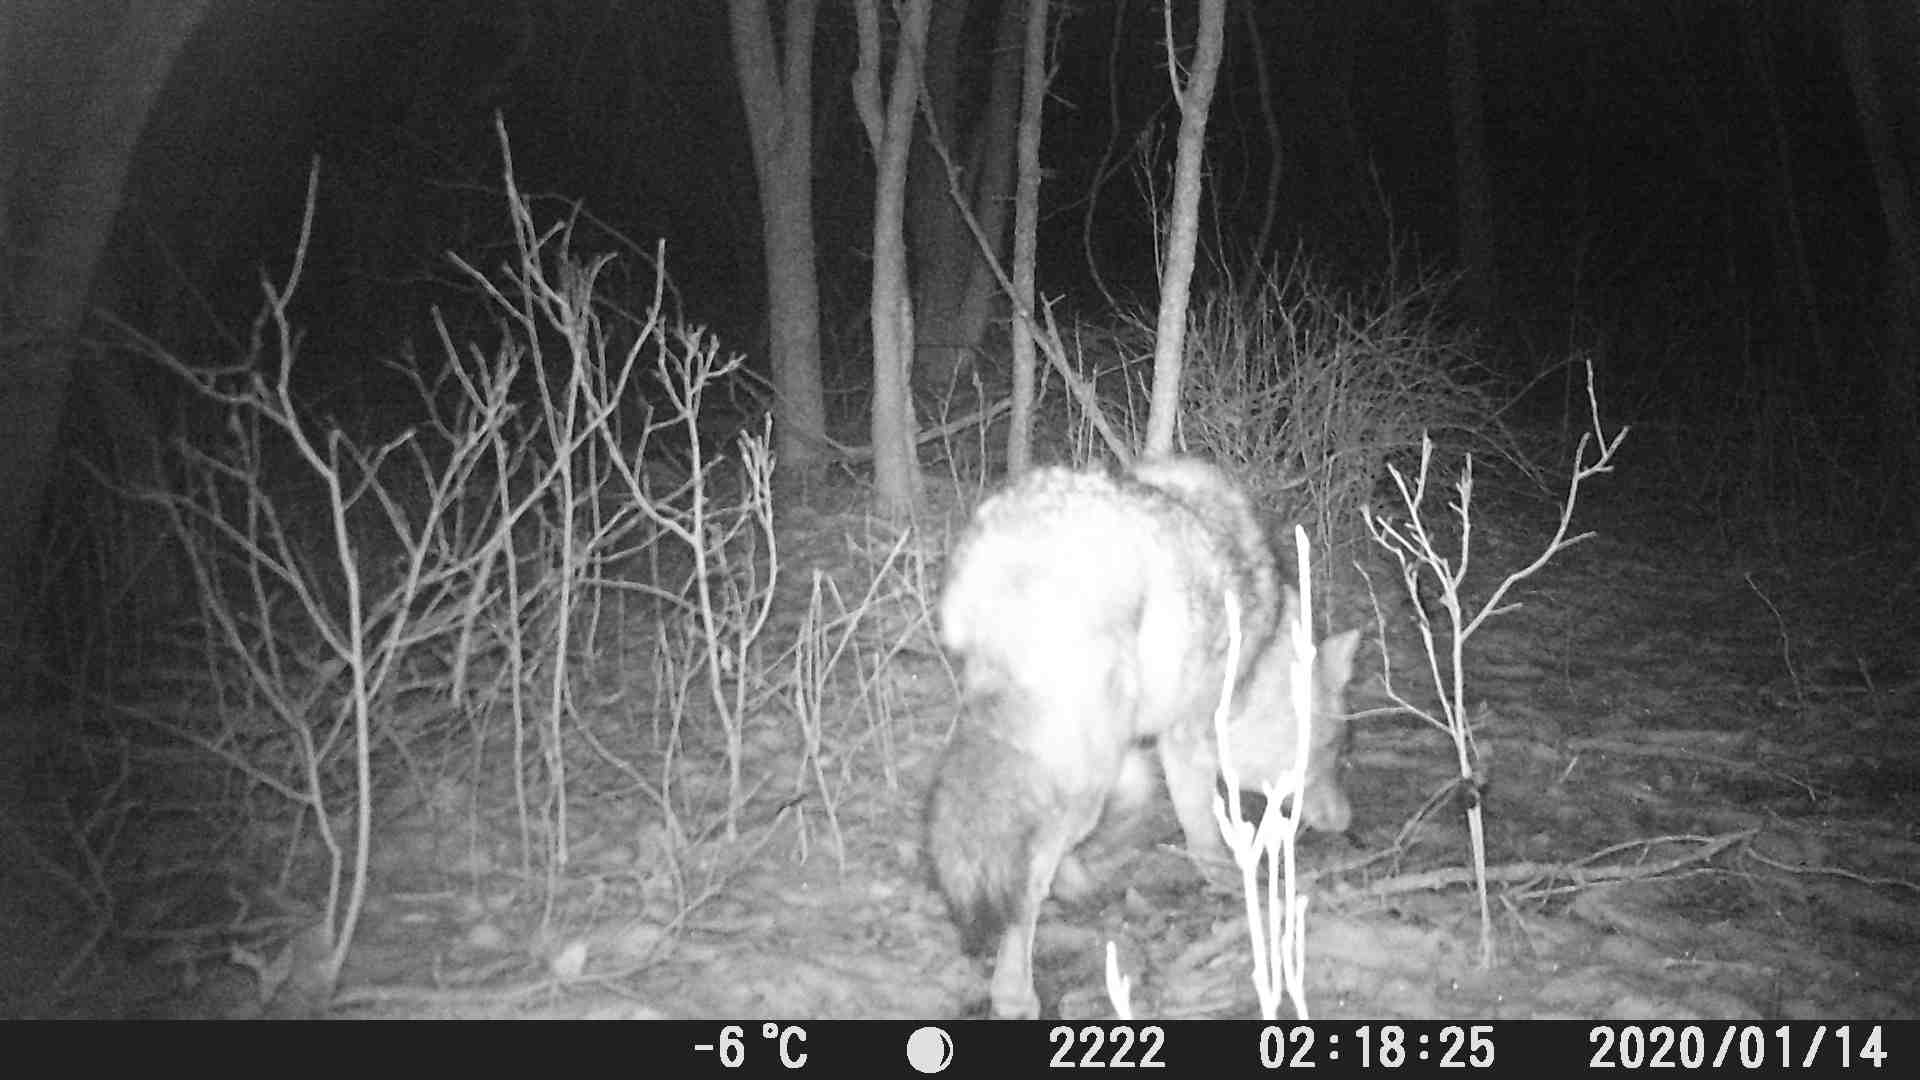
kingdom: Animalia
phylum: Chordata
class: Mammalia
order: Carnivora
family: Canidae
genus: Canis
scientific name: Canis latrans
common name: Coyote
